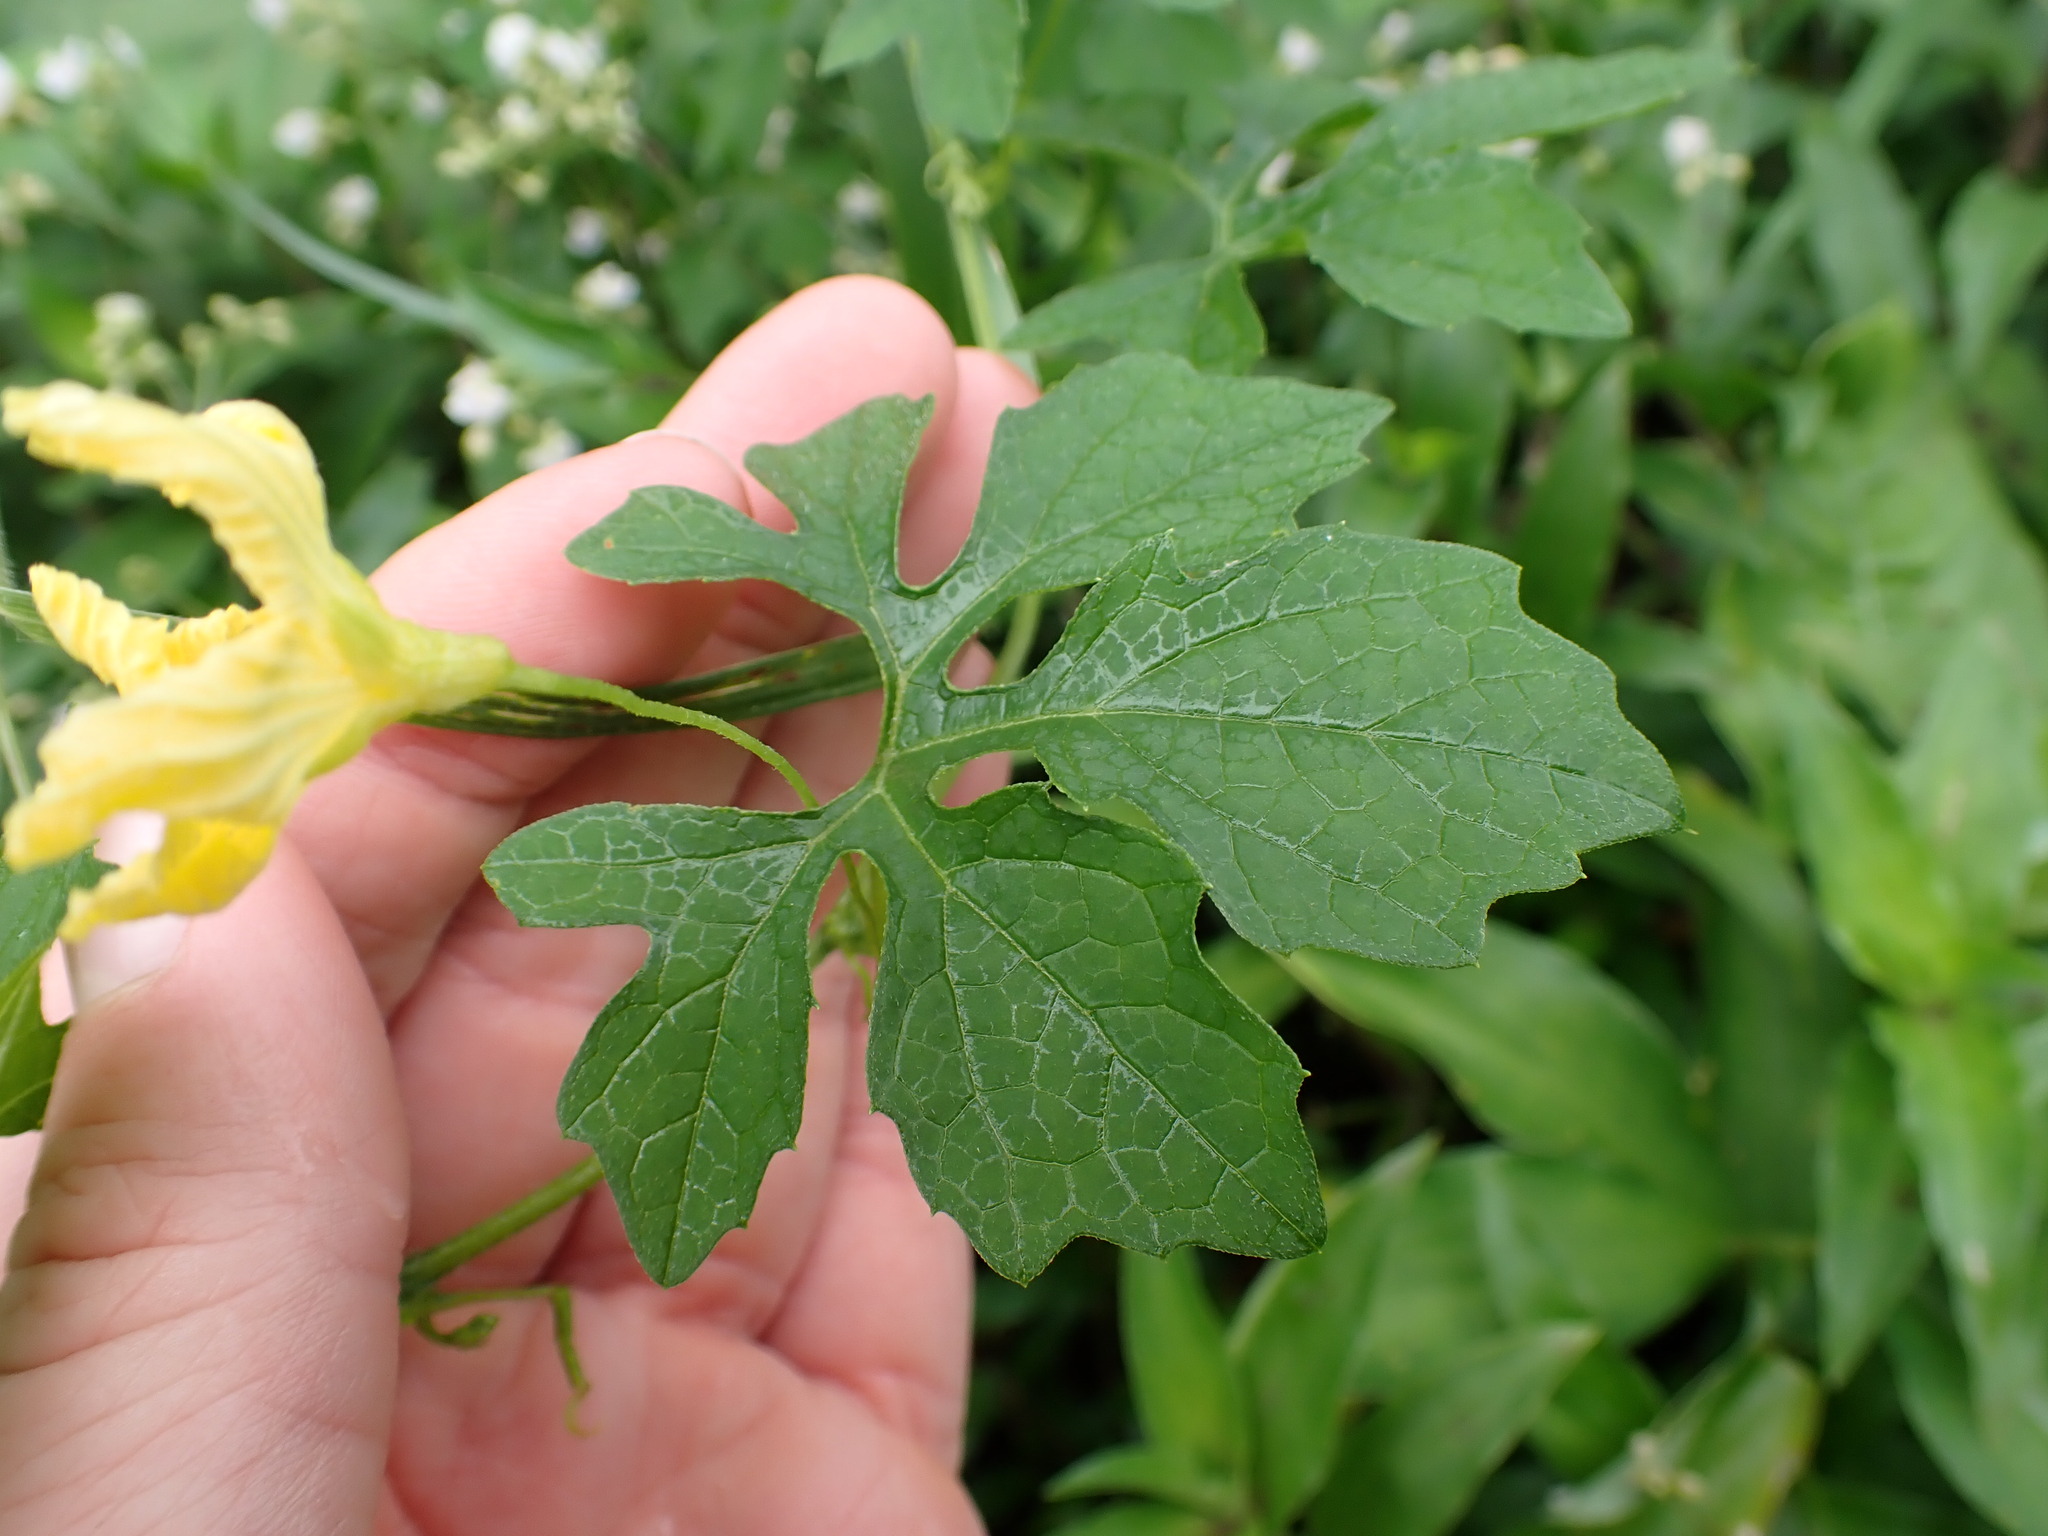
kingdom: Plantae
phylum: Tracheophyta
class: Magnoliopsida
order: Cucurbitales
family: Cucurbitaceae
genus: Momordica
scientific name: Momordica charantia
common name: Balsampear
